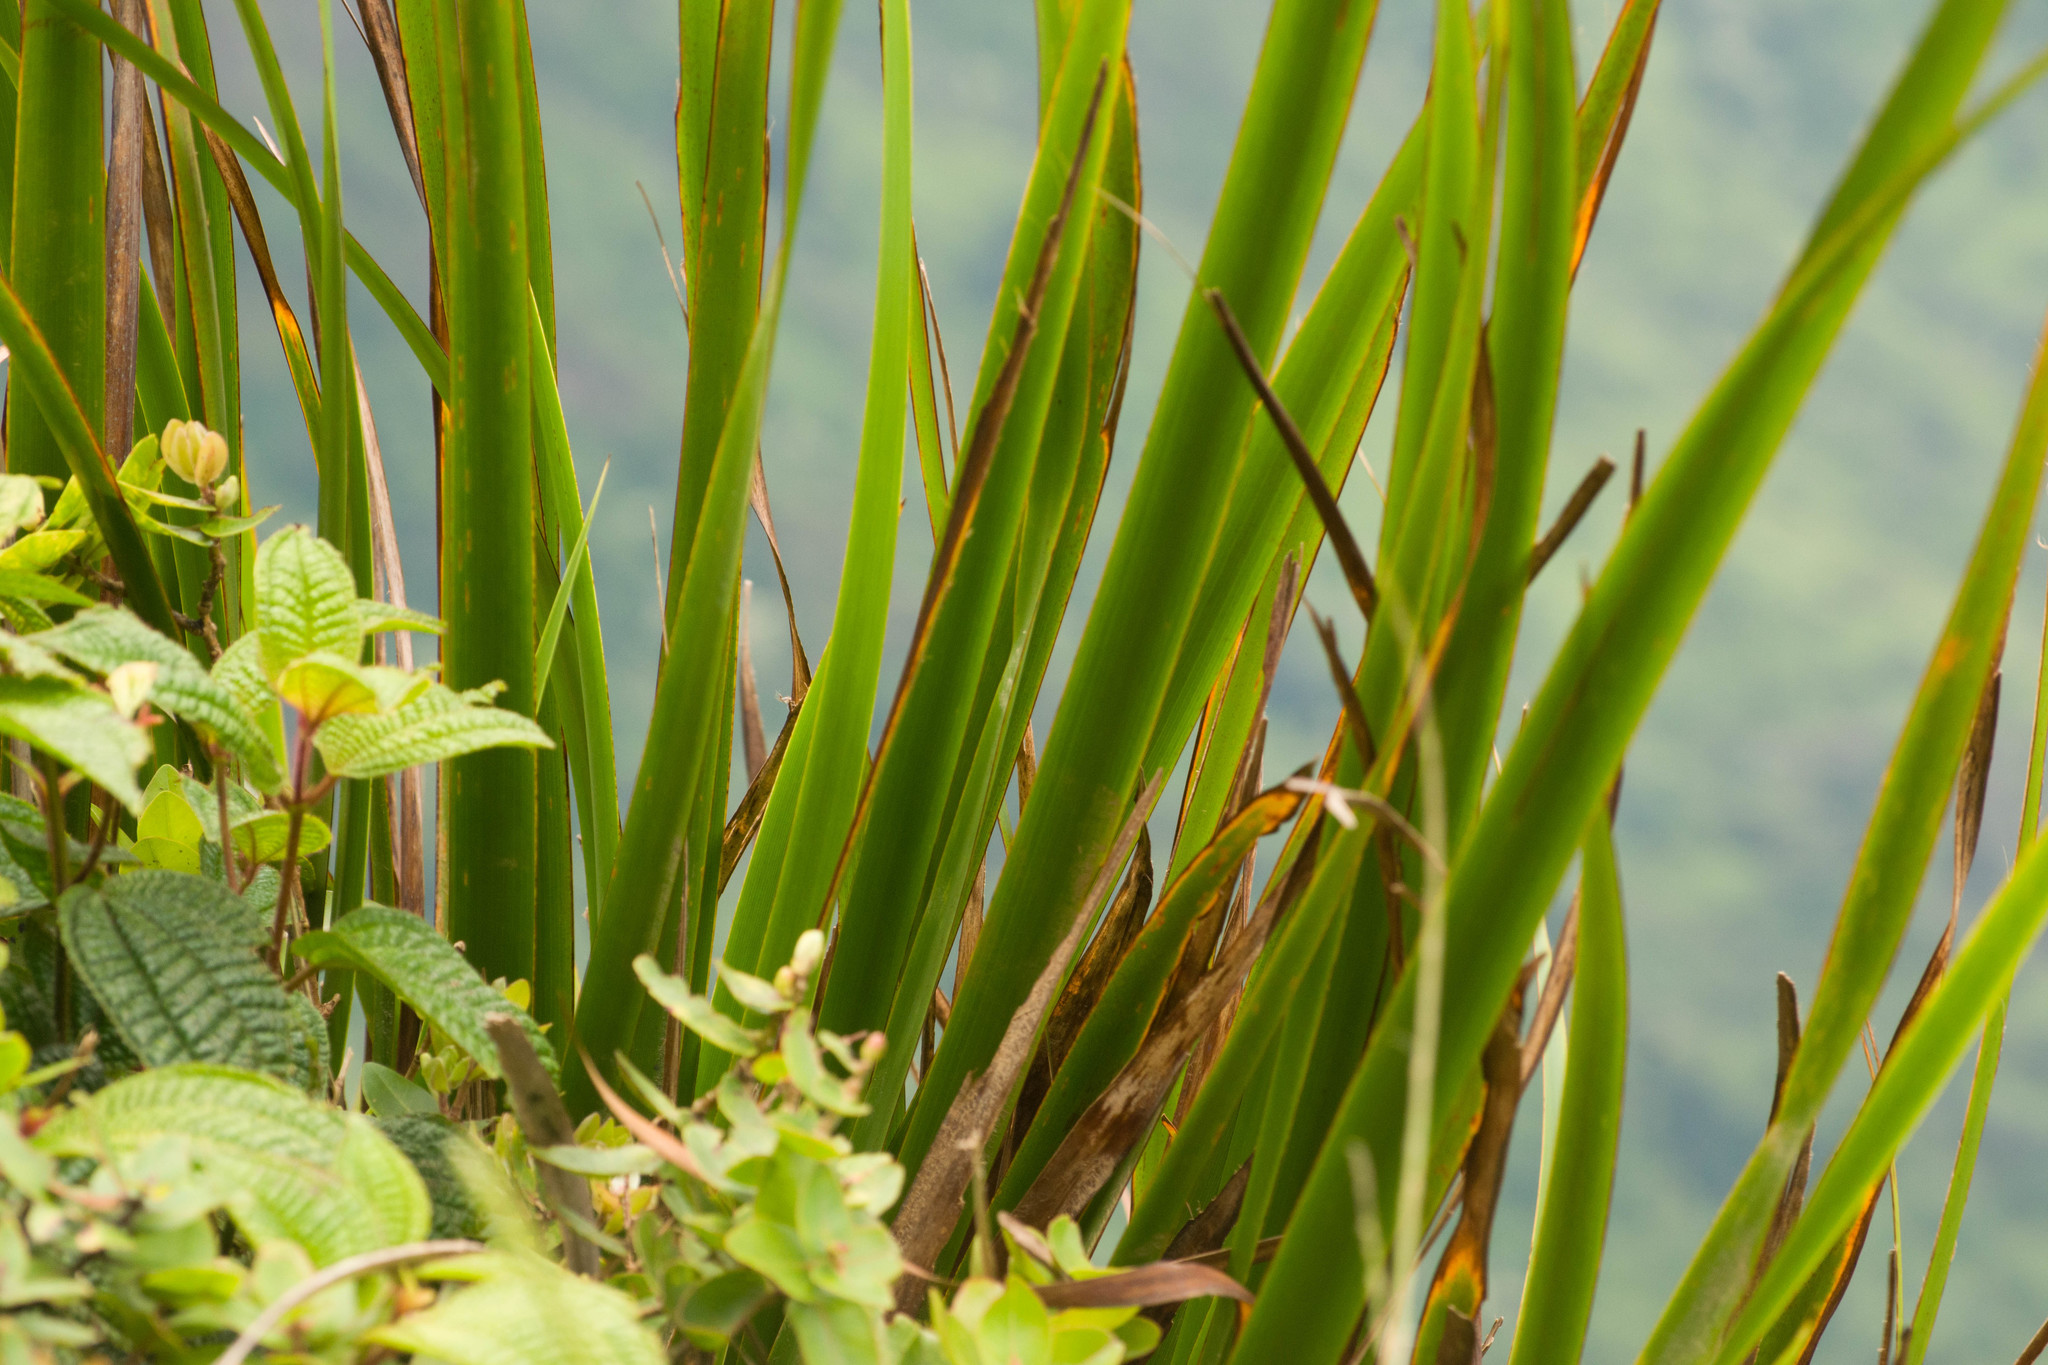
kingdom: Plantae
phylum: Tracheophyta
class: Liliopsida
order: Poales
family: Cyperaceae
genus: Machaerina
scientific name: Machaerina angustifolia
